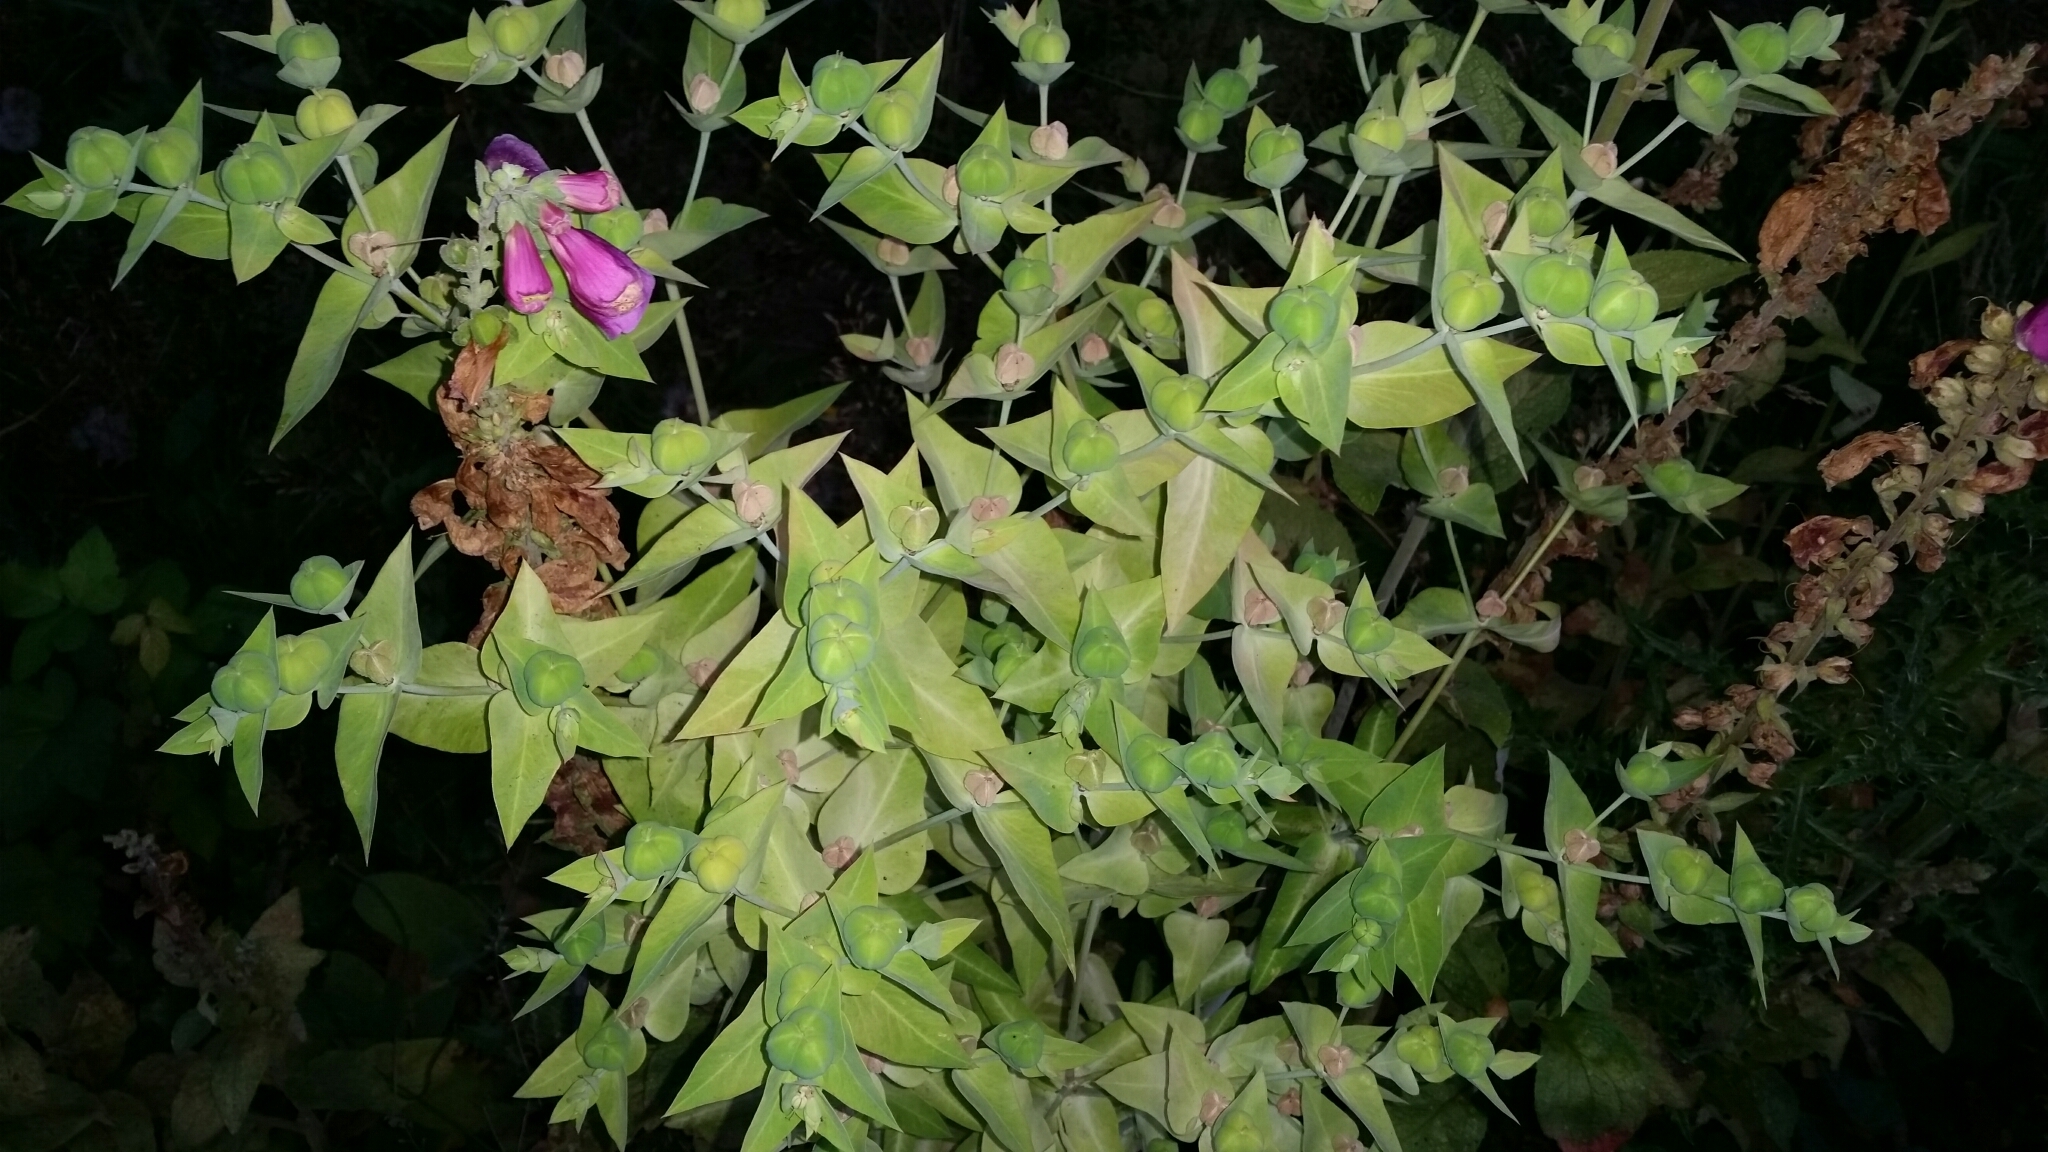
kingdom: Plantae
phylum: Tracheophyta
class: Magnoliopsida
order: Malpighiales
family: Euphorbiaceae
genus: Euphorbia
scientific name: Euphorbia lathyris
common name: Caper spurge
